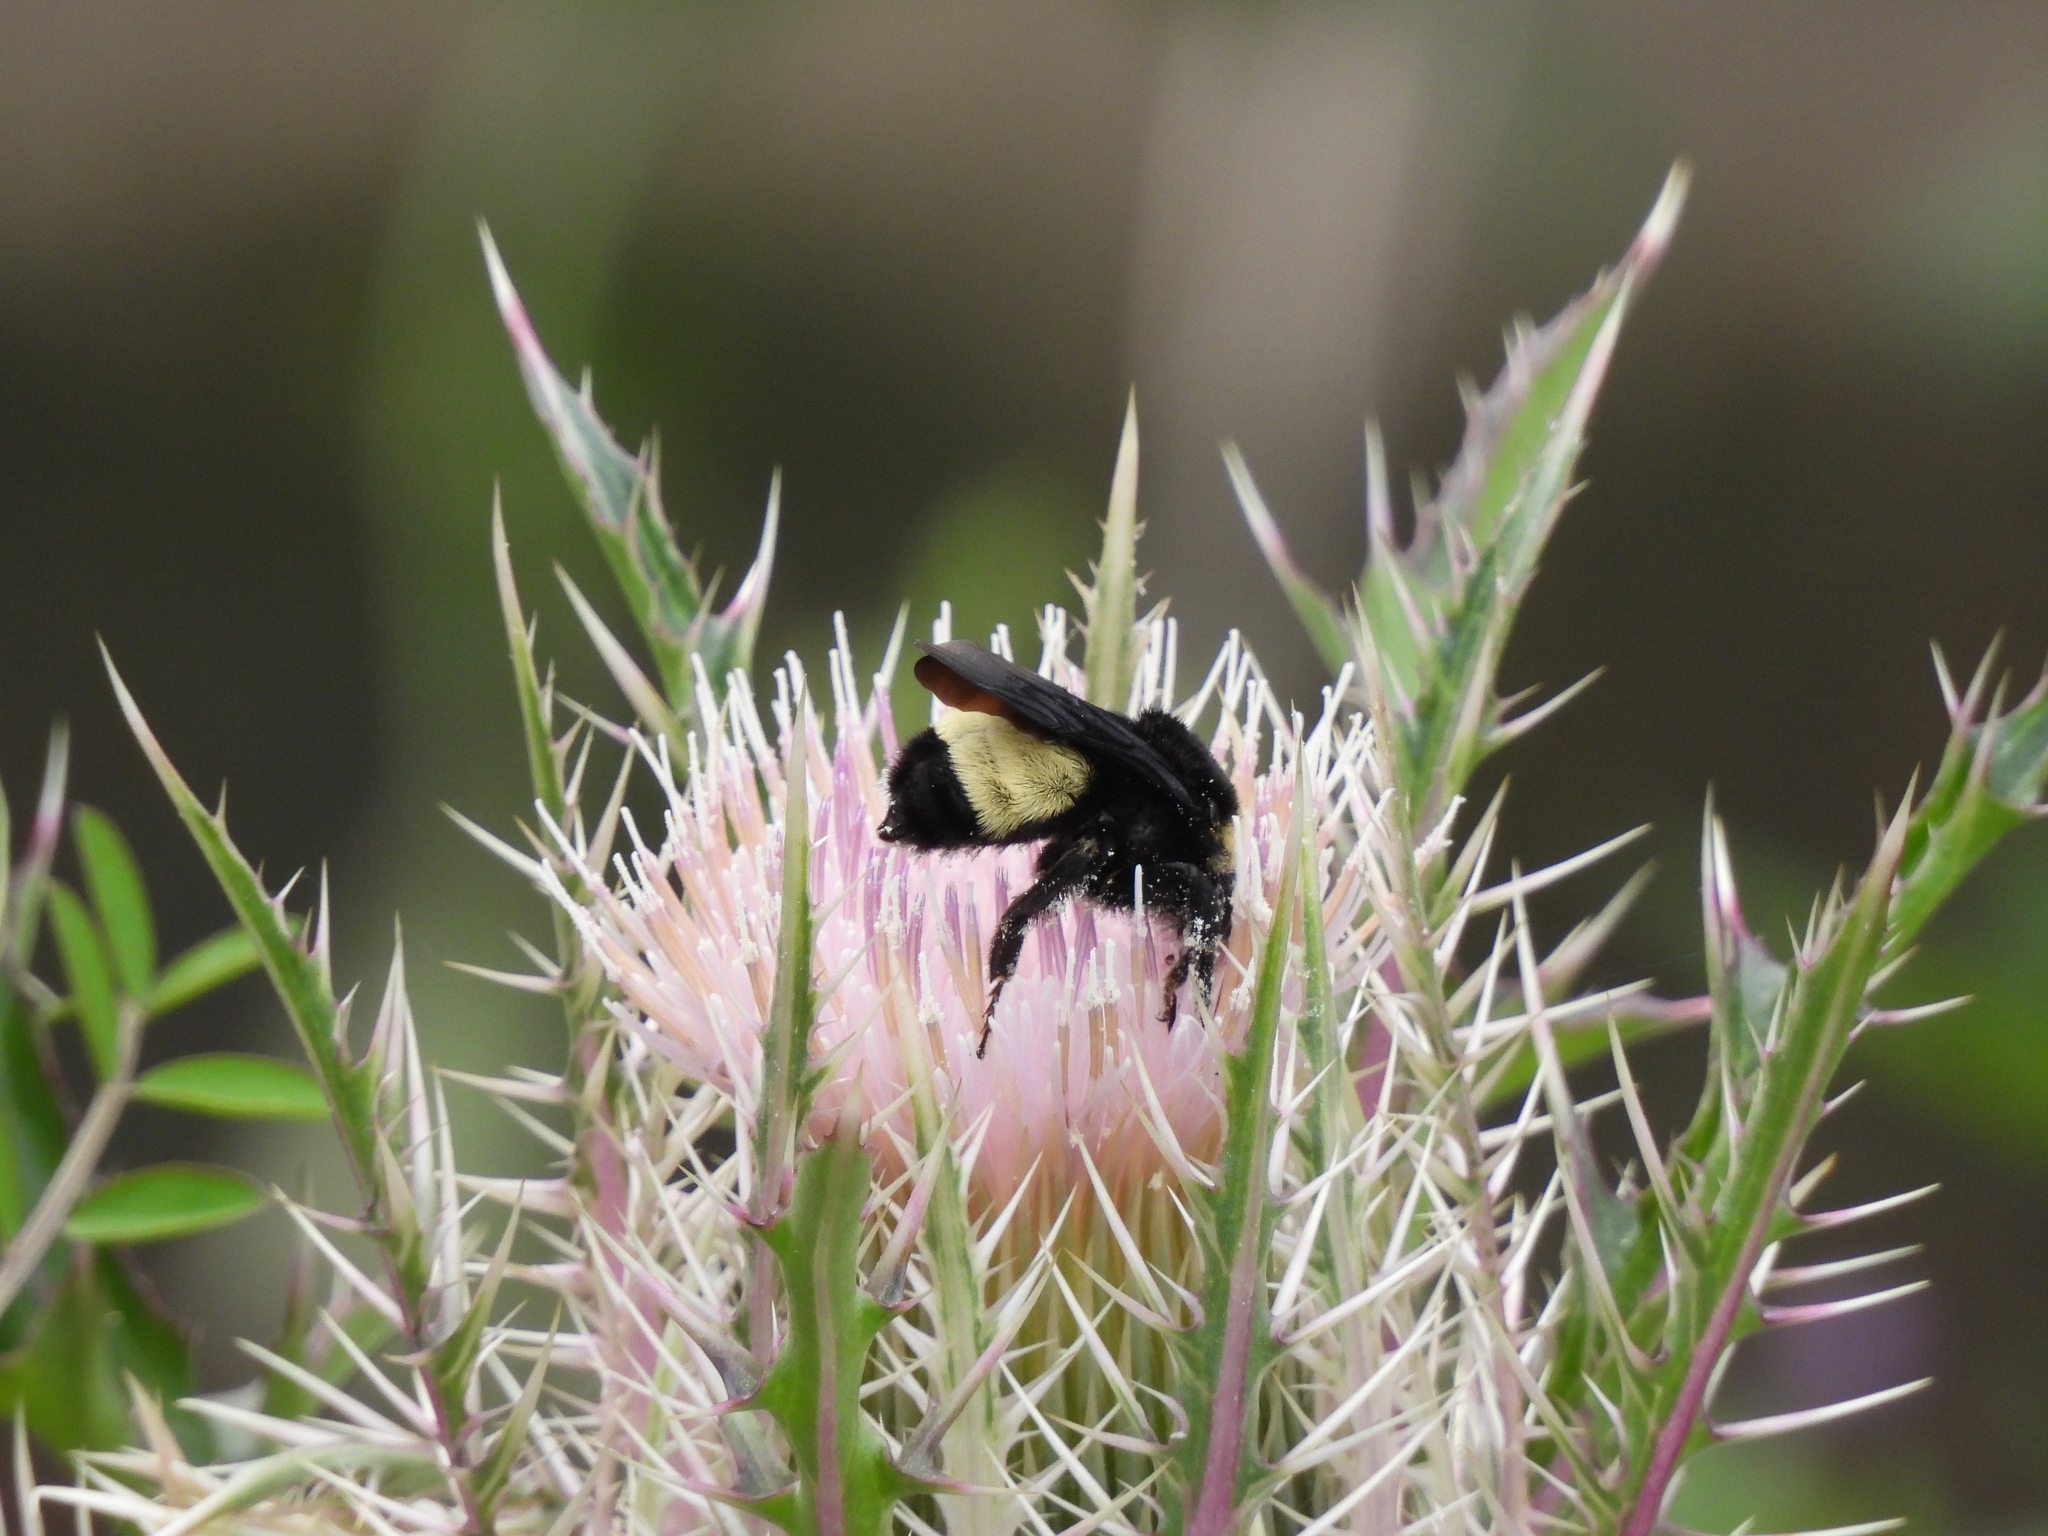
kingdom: Animalia
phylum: Arthropoda
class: Insecta
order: Hymenoptera
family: Apidae
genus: Bombus
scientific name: Bombus pensylvanicus
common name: Bumble bee
